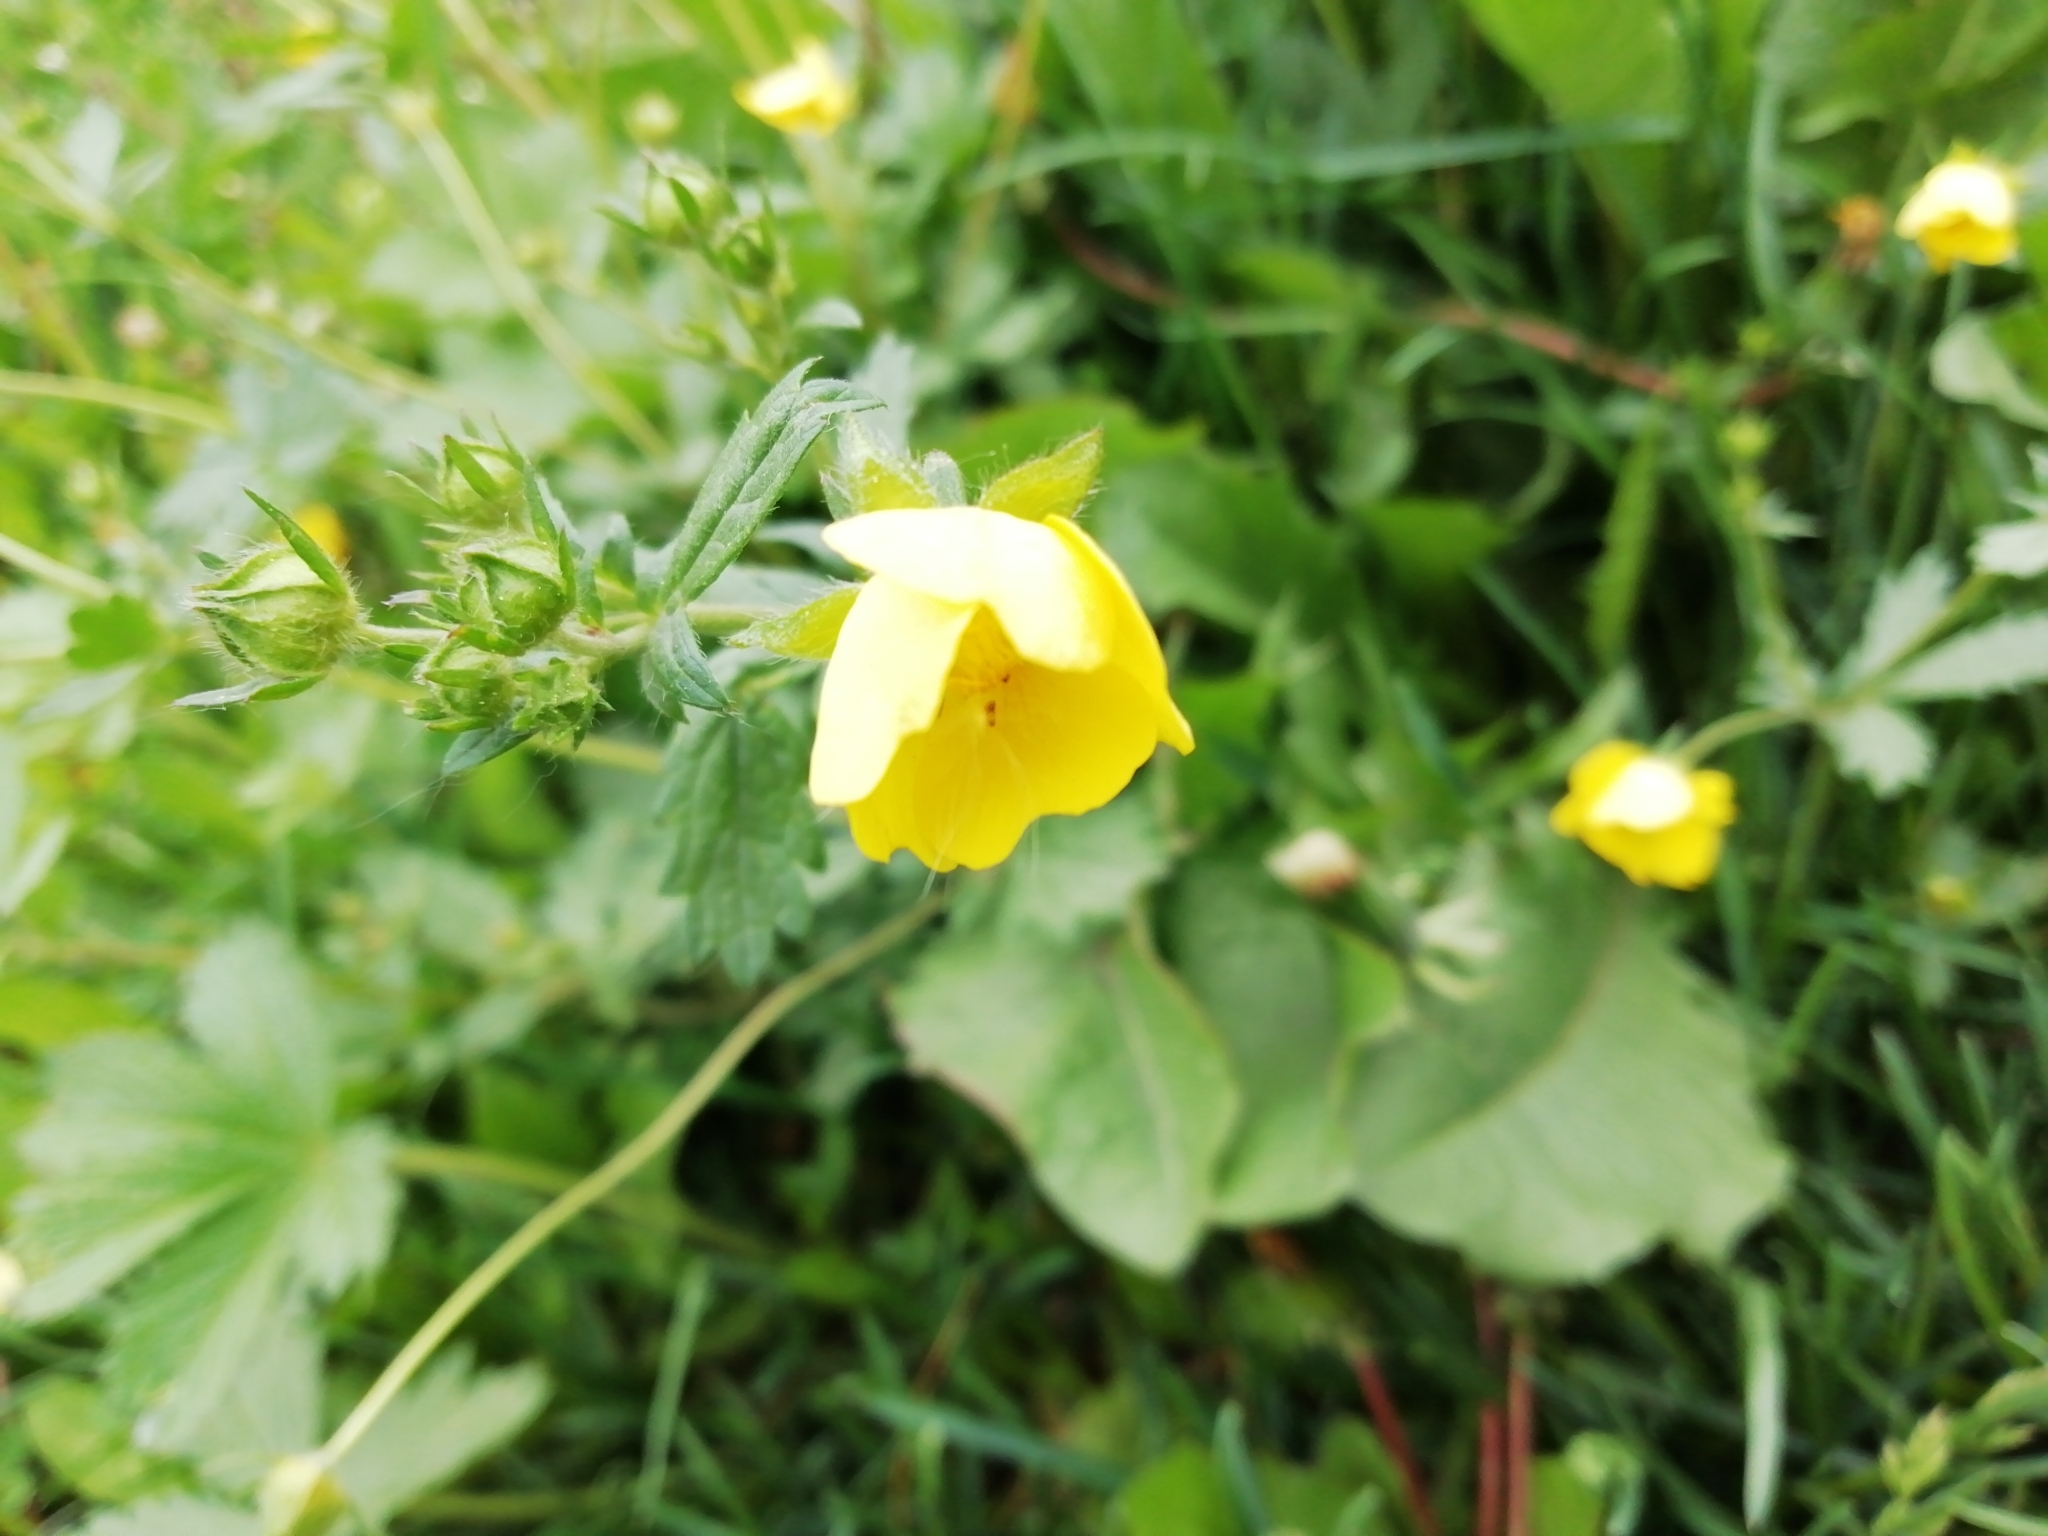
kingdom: Plantae
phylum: Tracheophyta
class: Magnoliopsida
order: Rosales
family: Rosaceae
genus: Potentilla
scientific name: Potentilla chrysantha
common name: Thuringian cinquefoil
